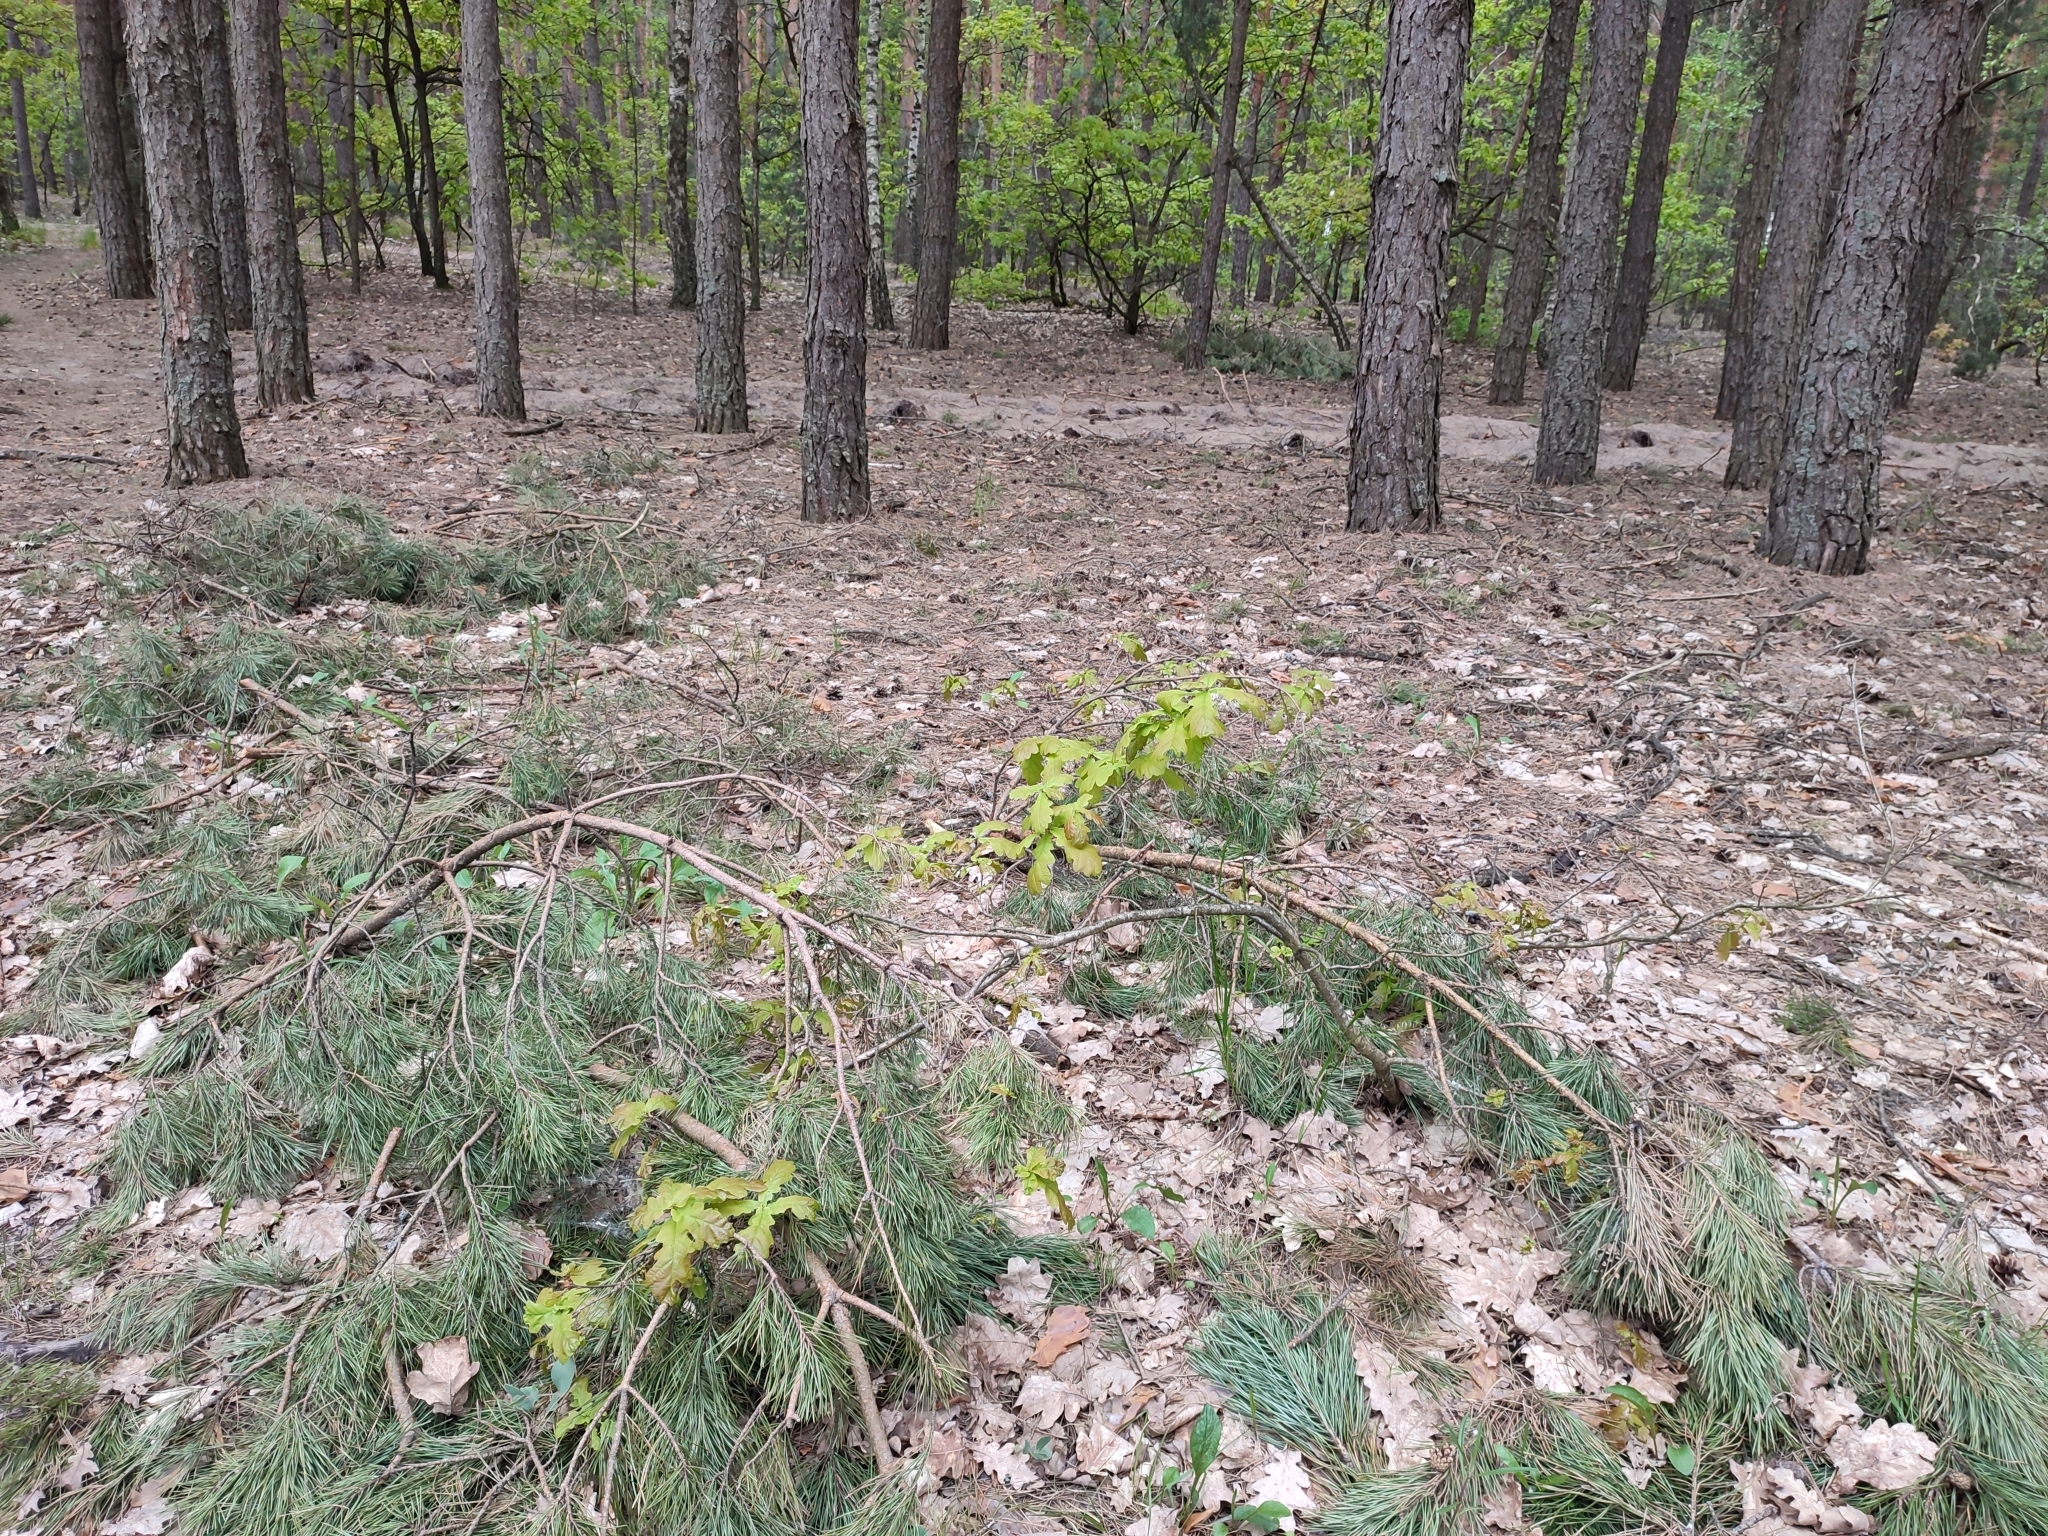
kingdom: Plantae
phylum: Tracheophyta
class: Magnoliopsida
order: Fagales
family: Fagaceae
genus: Quercus
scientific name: Quercus robur
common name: Pedunculate oak
